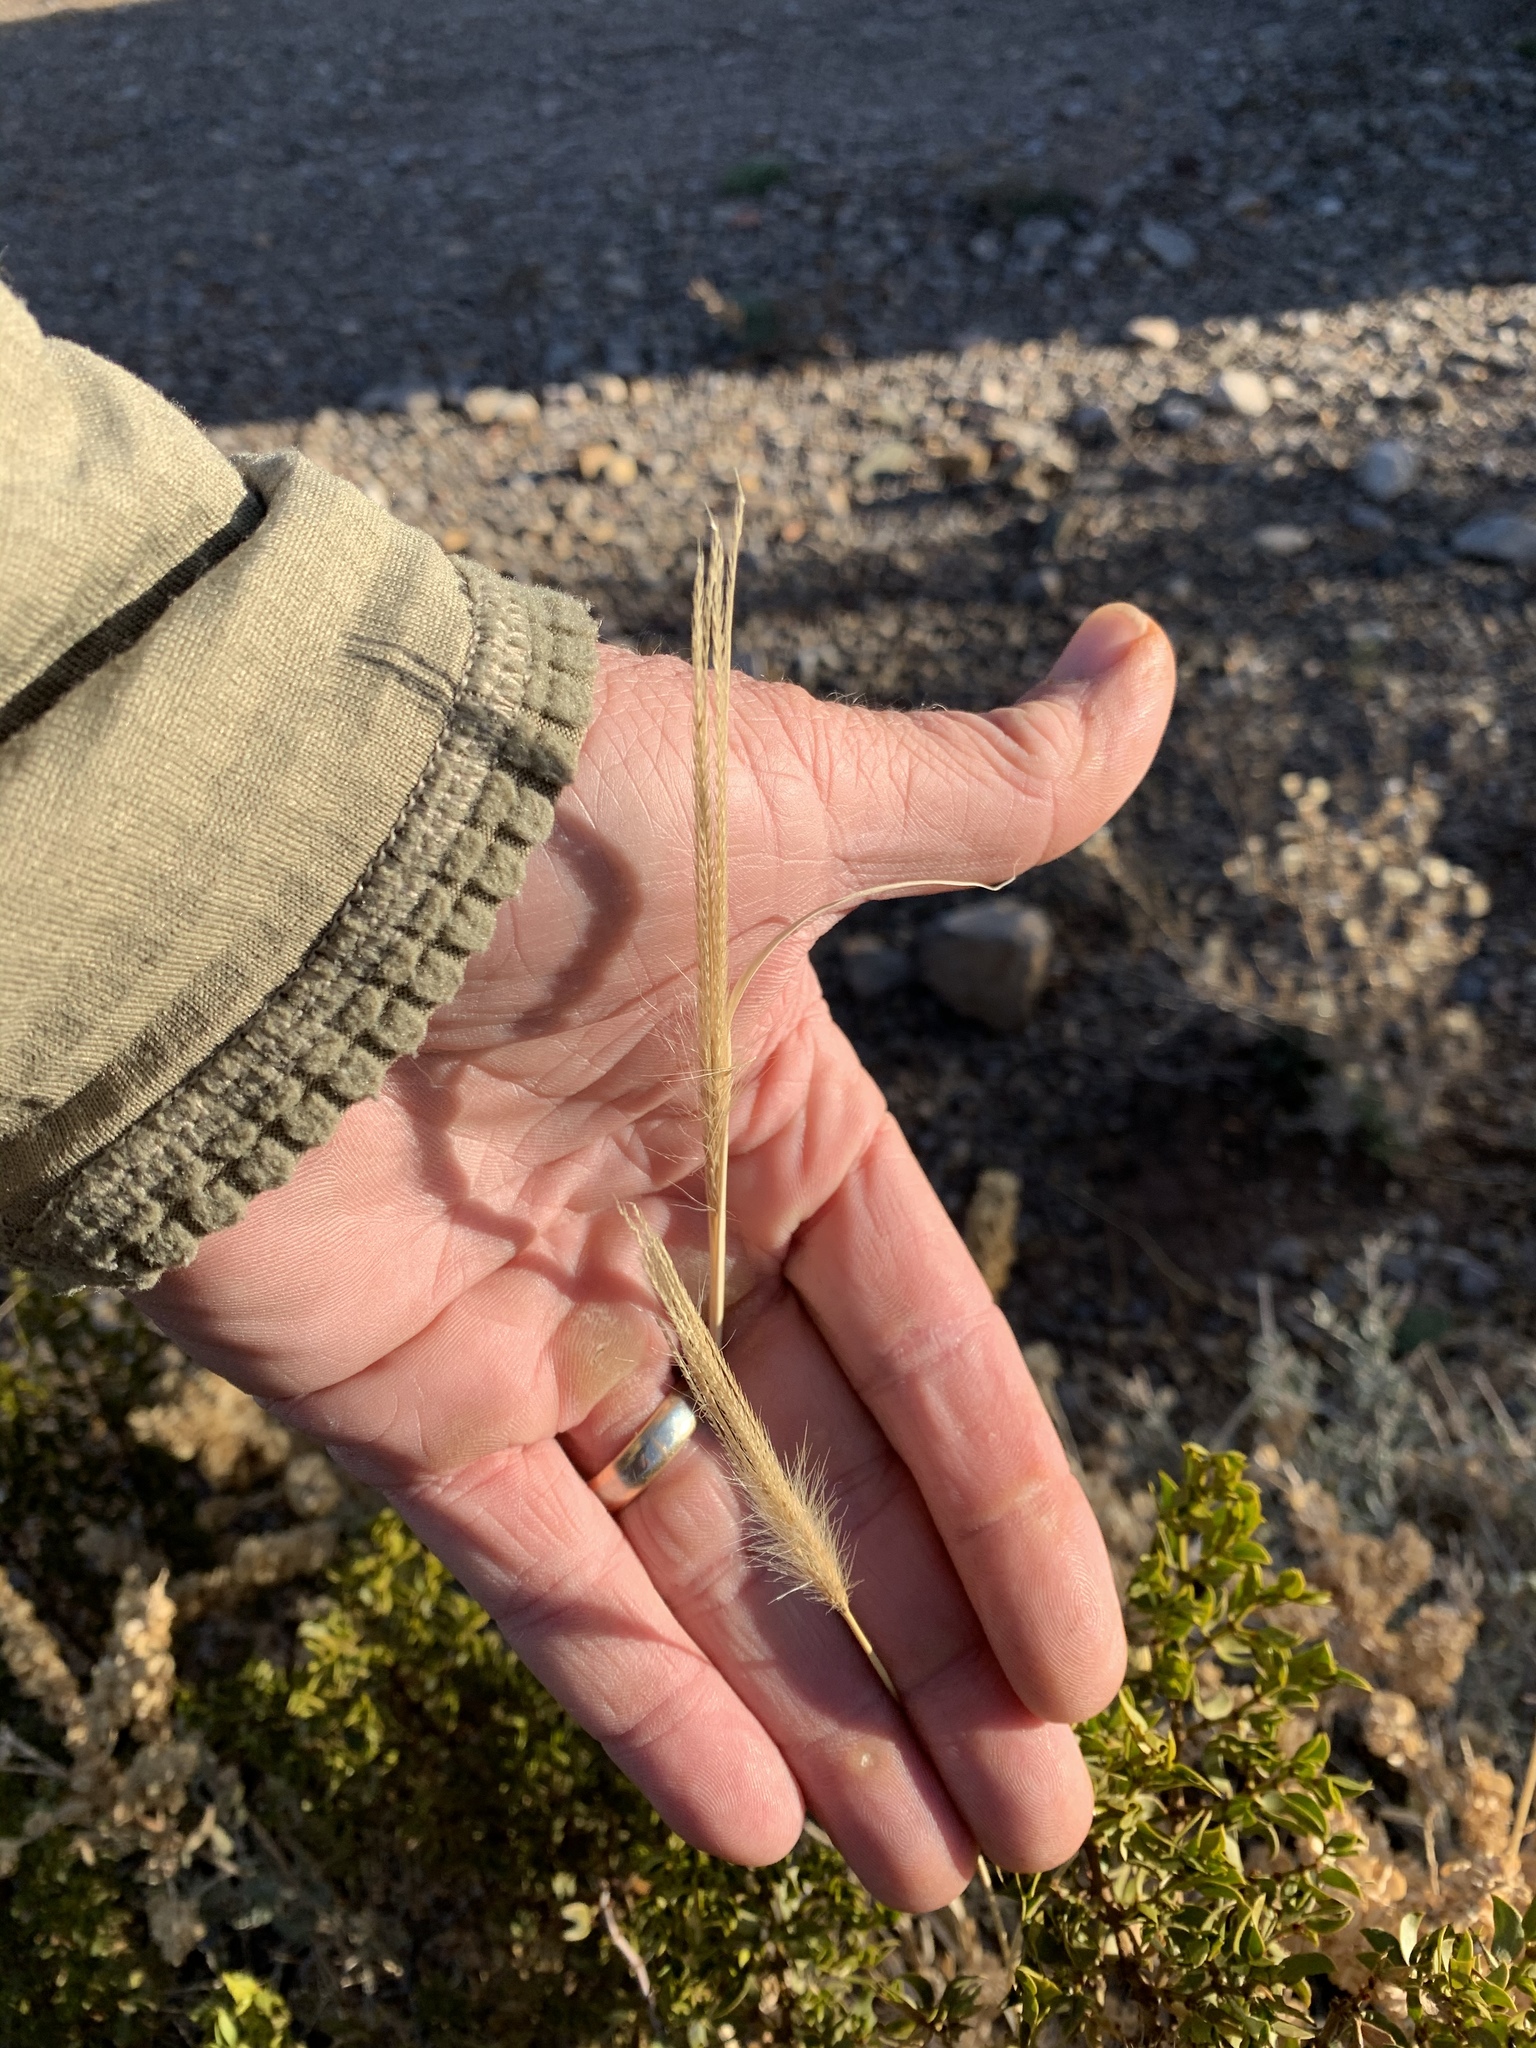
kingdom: Plantae
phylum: Tracheophyta
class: Liliopsida
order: Poales
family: Poaceae
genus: Chloris
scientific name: Chloris virgata
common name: Feathery rhodes-grass
